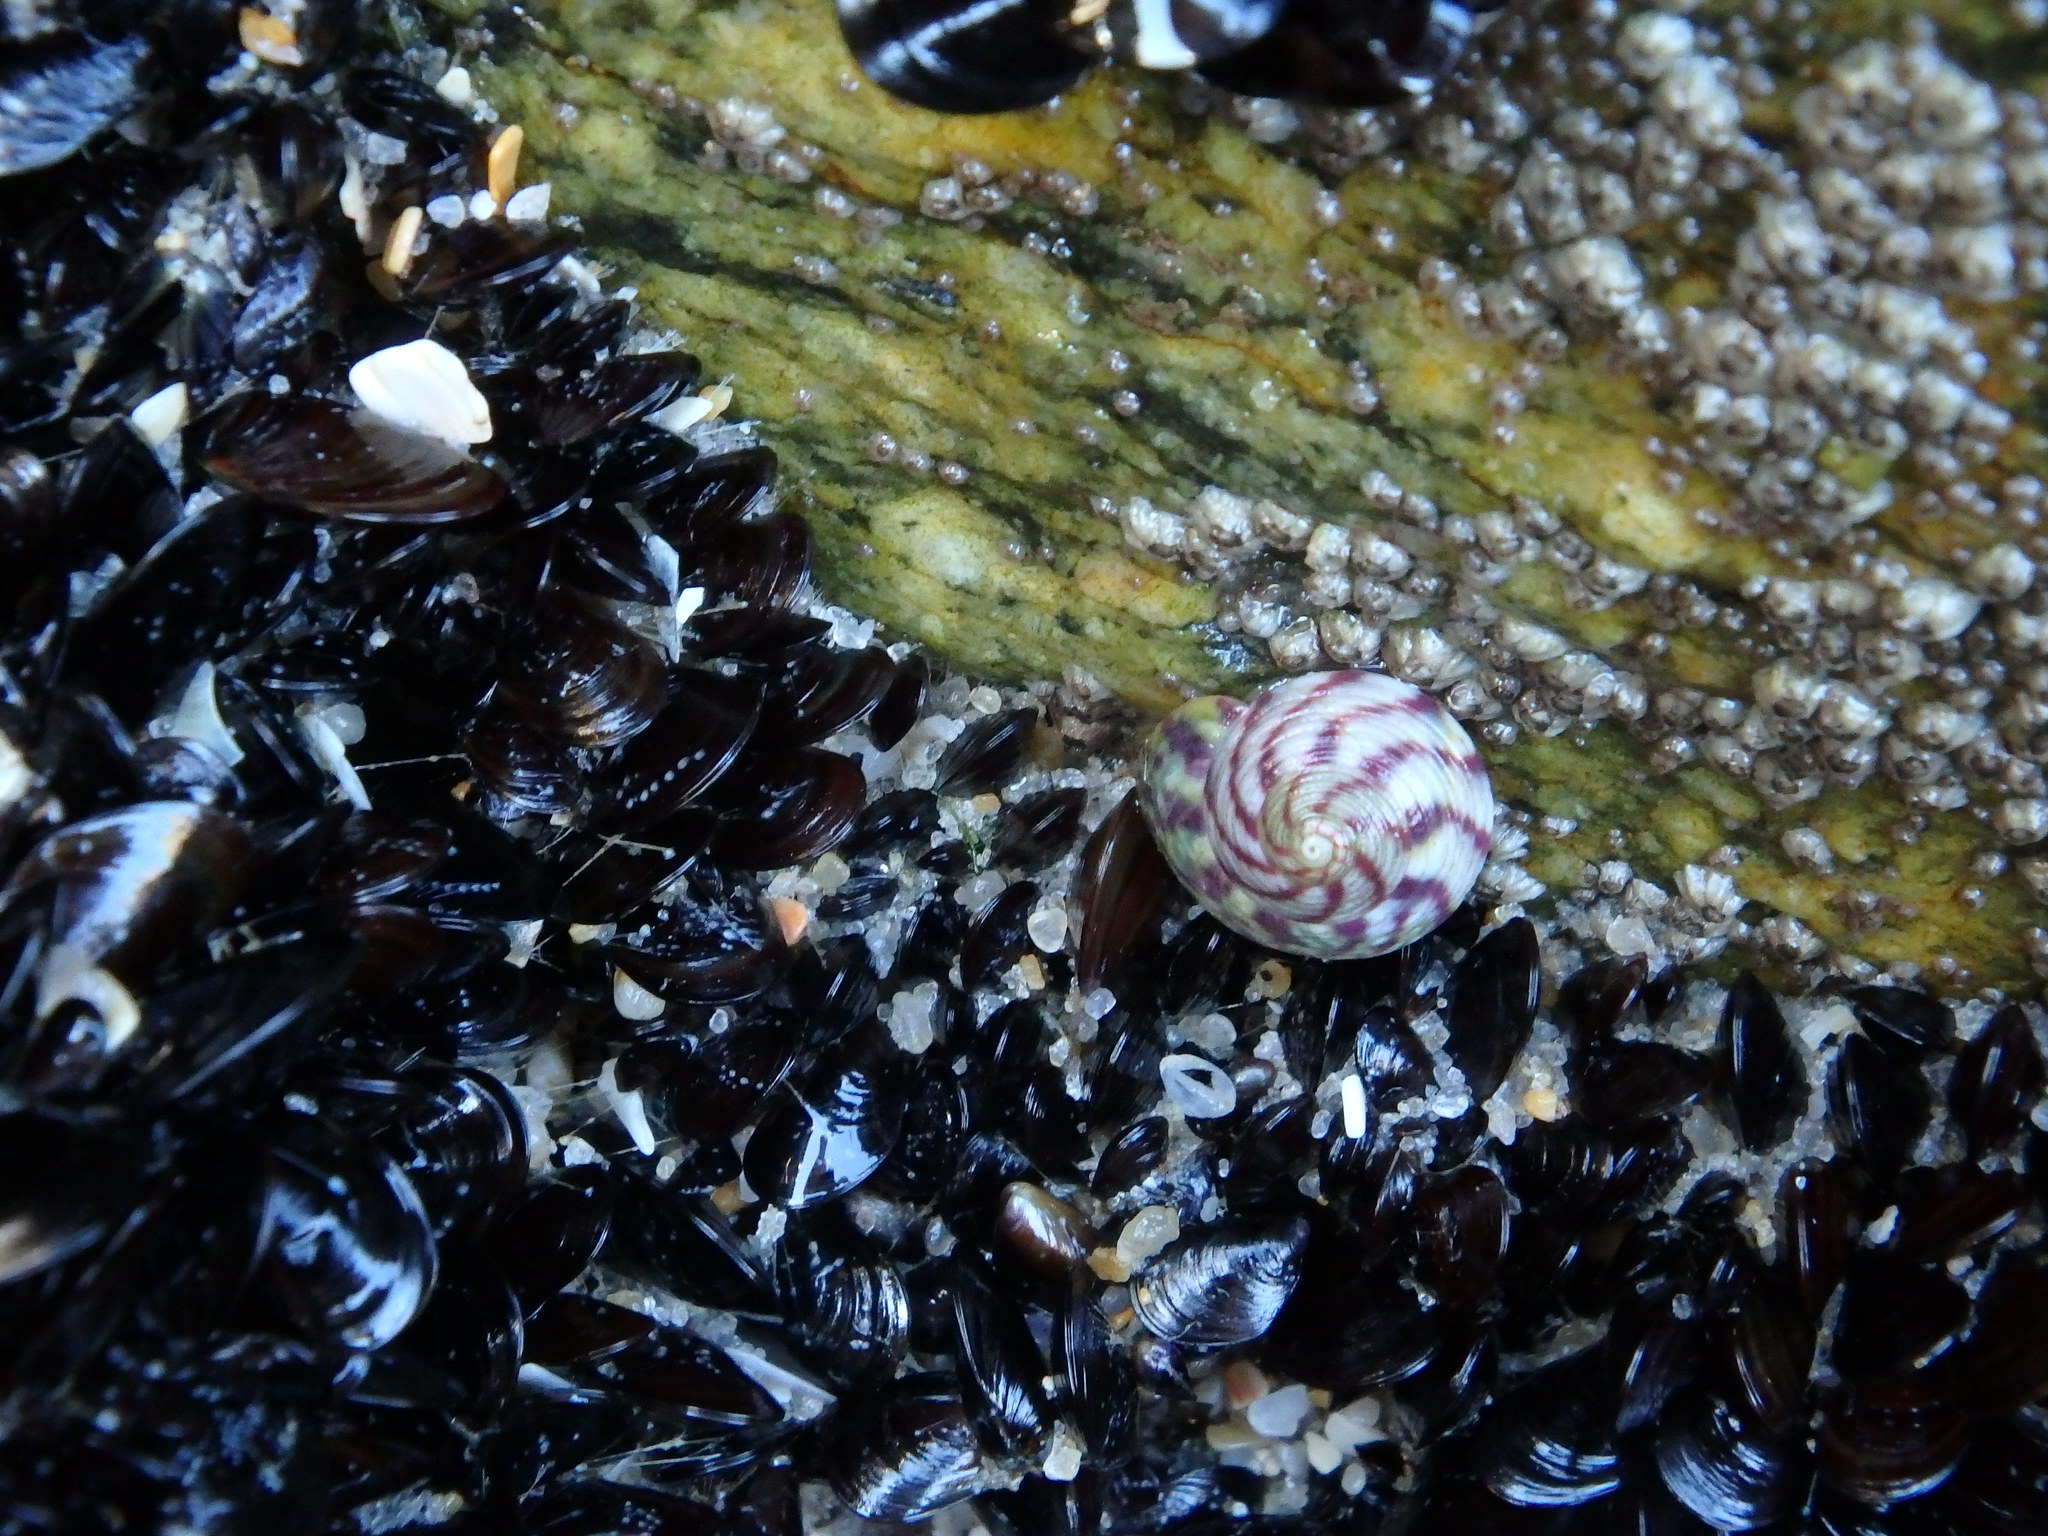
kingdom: Animalia
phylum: Mollusca
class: Gastropoda
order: Trochida
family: Trochidae
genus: Steromphala
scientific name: Steromphala umbilicalis
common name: Flat top shell
